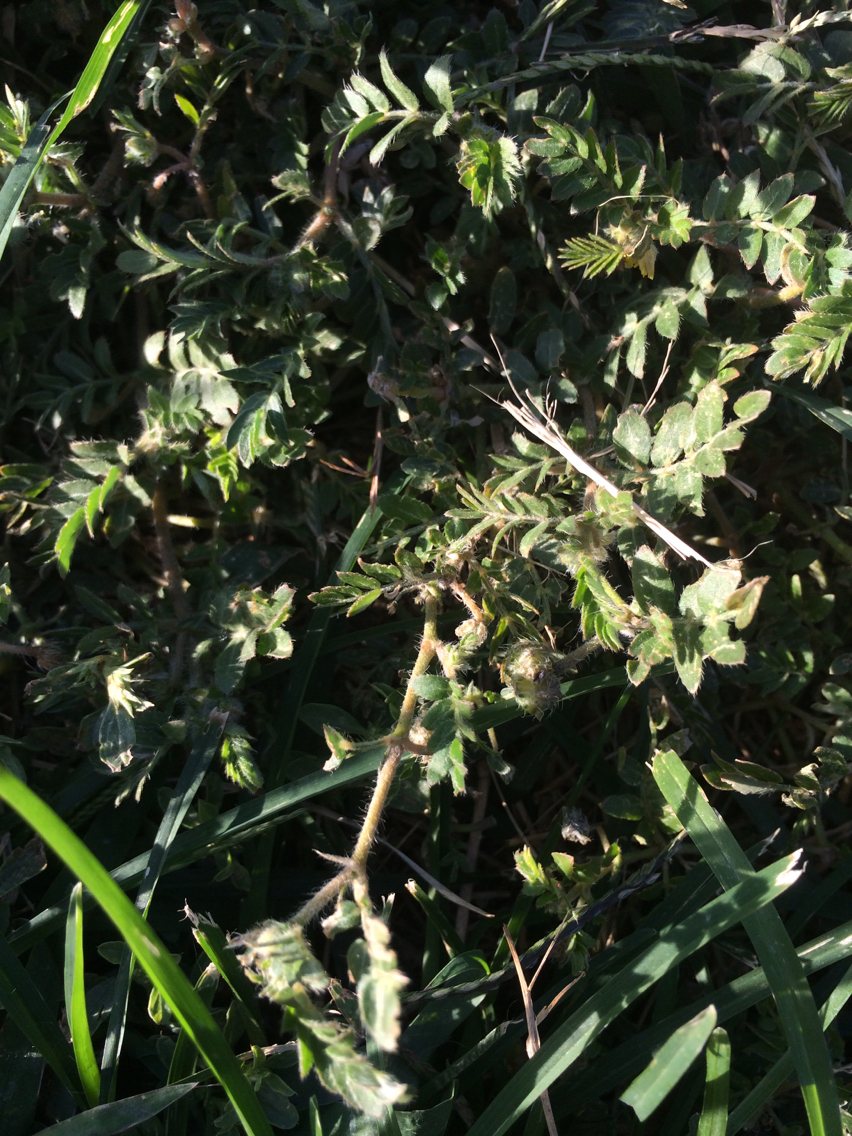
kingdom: Plantae
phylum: Tracheophyta
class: Magnoliopsida
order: Zygophyllales
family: Zygophyllaceae
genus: Tribulus
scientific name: Tribulus terrestris
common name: Puncturevine
